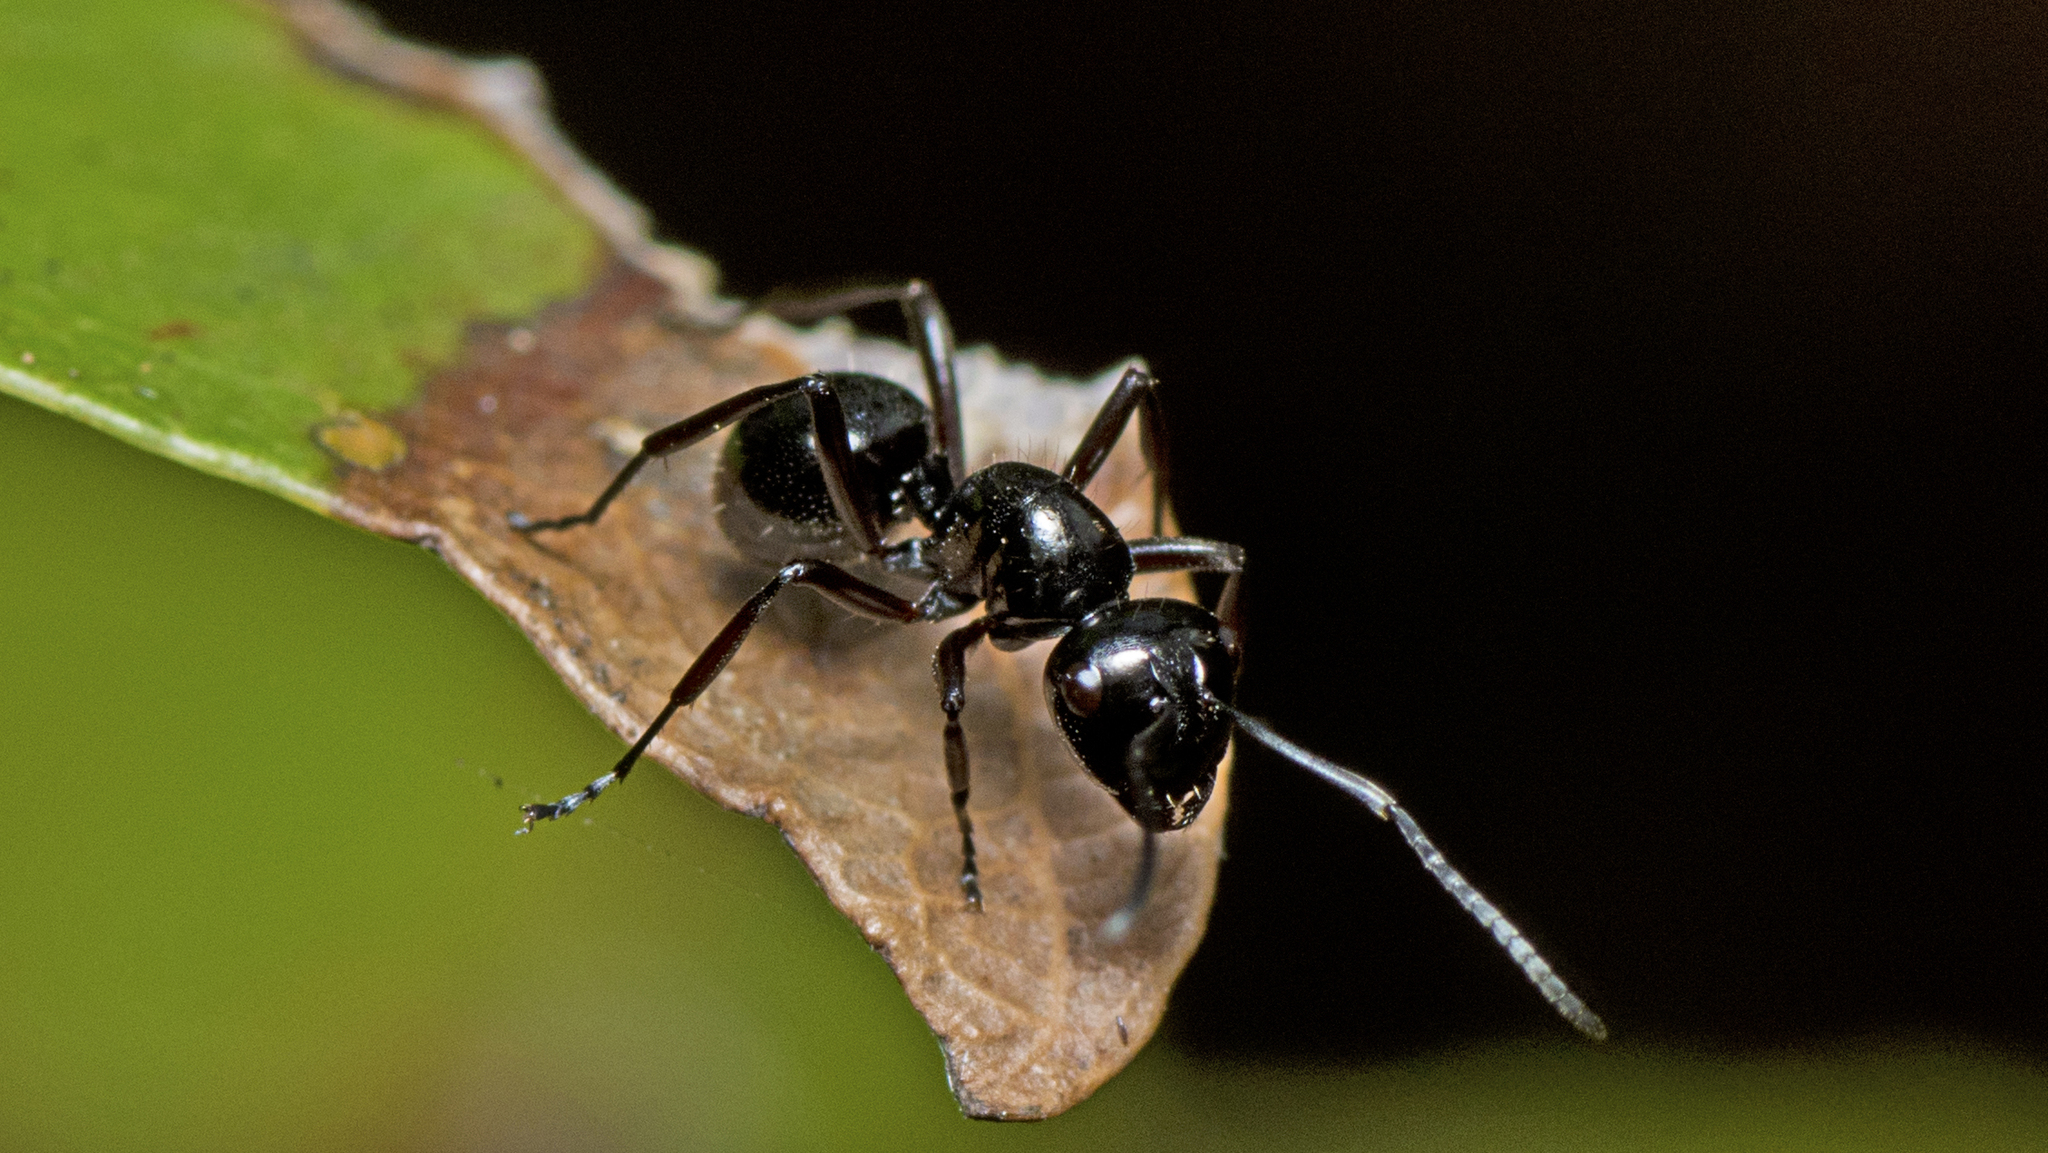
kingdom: Animalia
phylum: Arthropoda
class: Insecta
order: Hymenoptera
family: Formicidae
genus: Polyrhachis
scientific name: Polyrhachis pilosa
